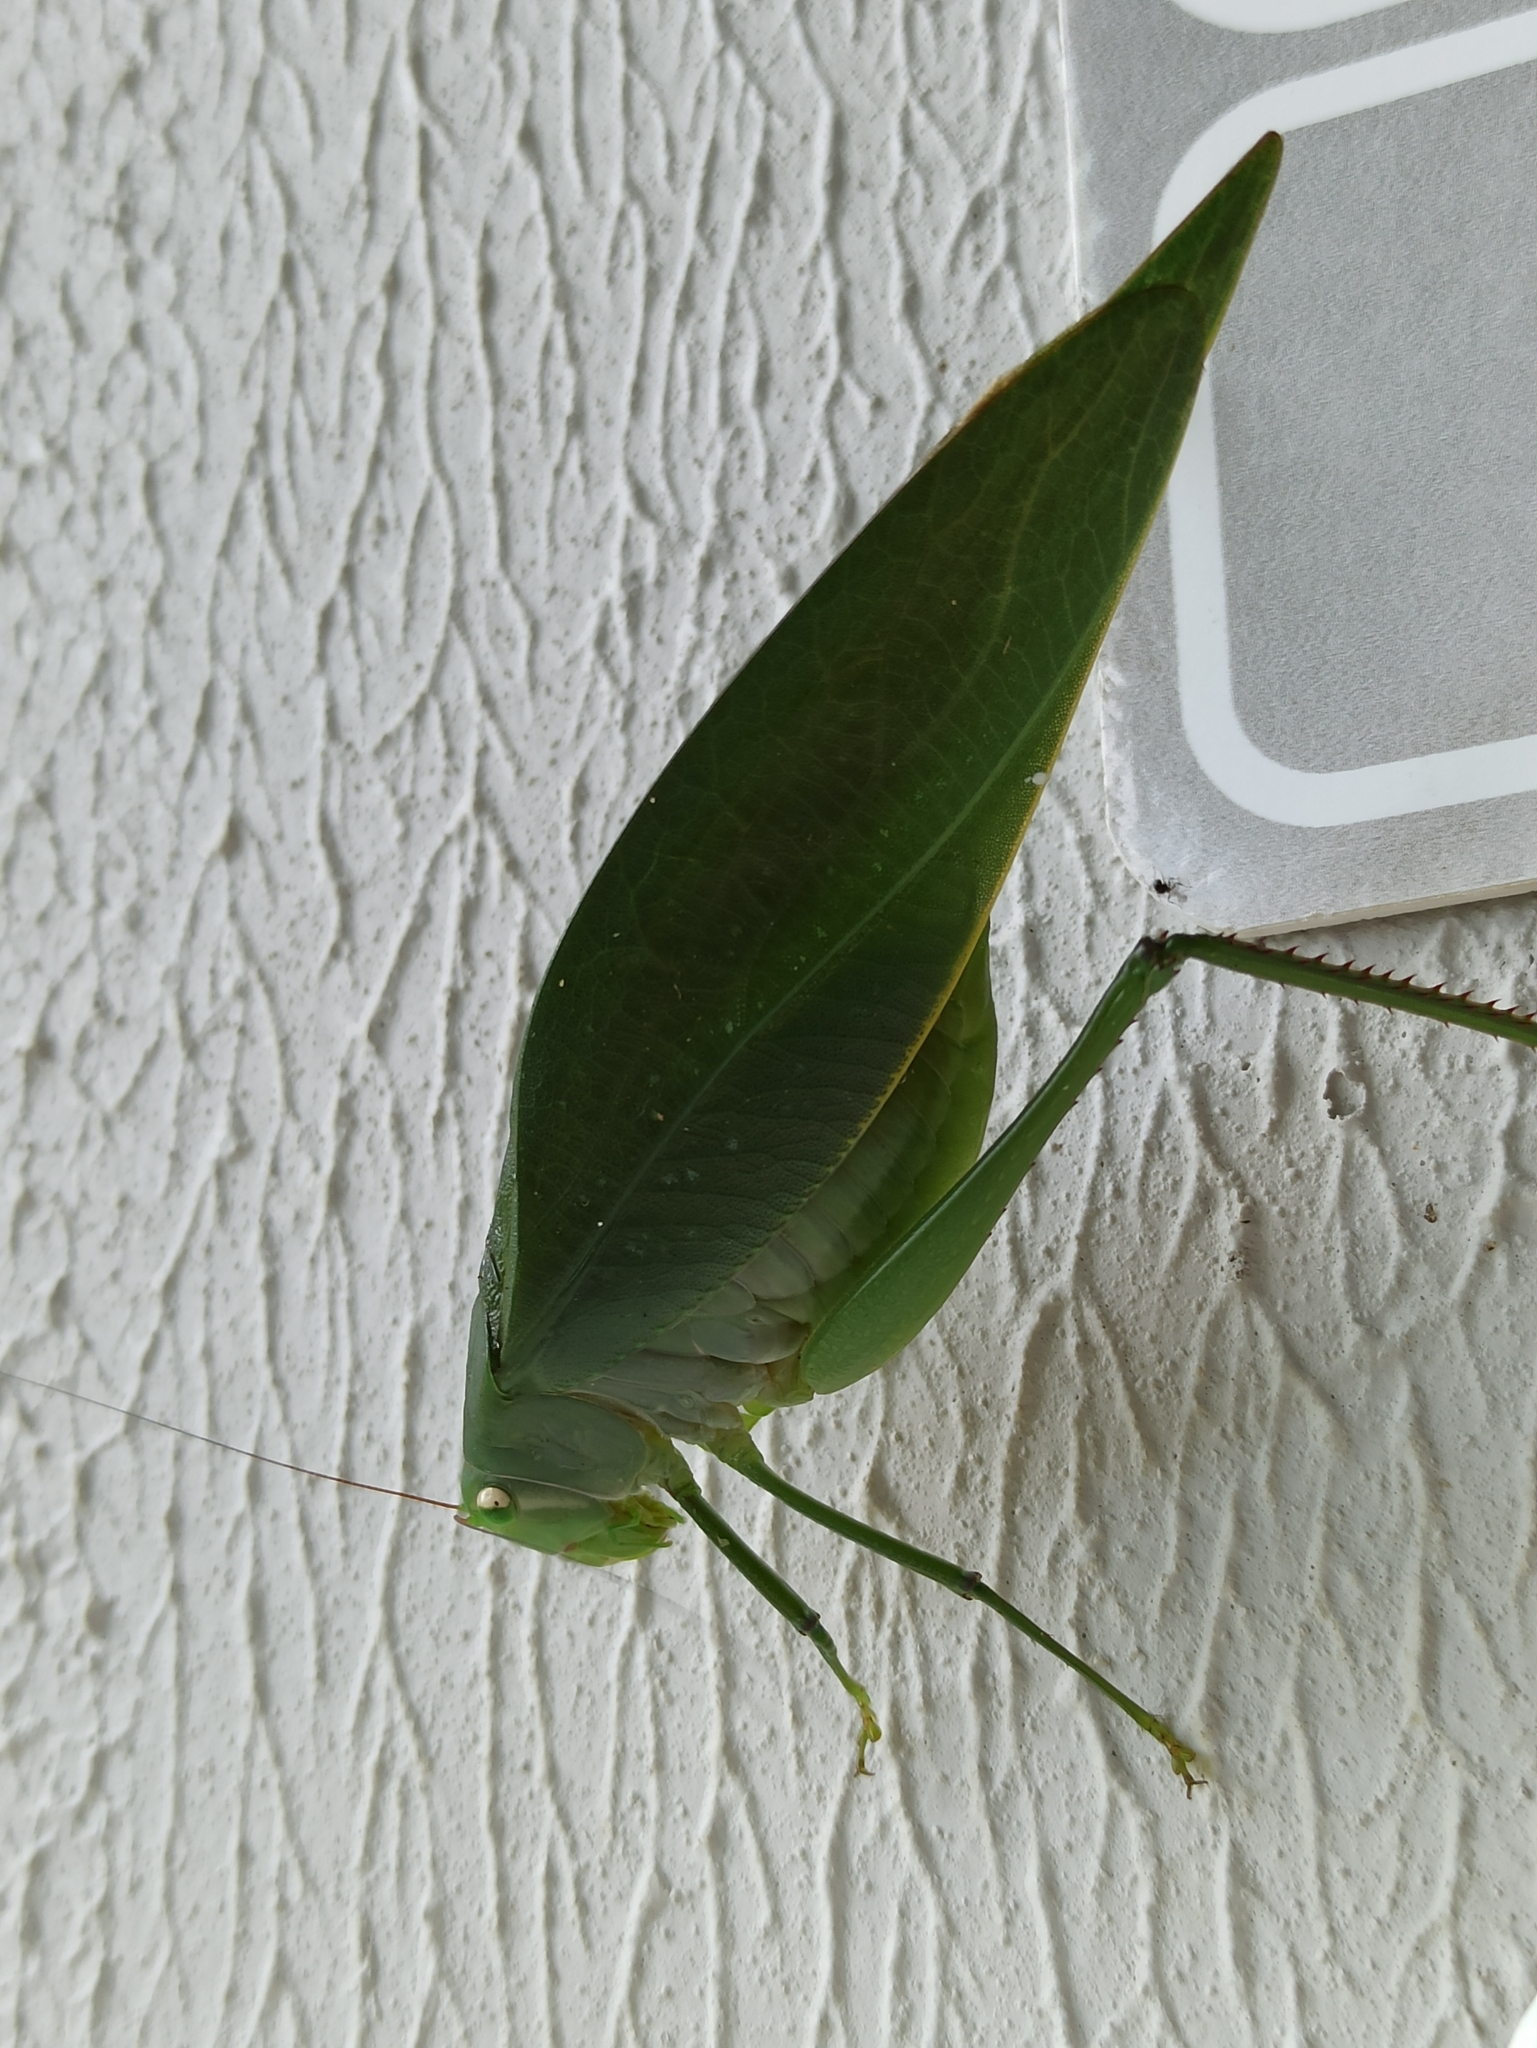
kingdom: Animalia
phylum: Arthropoda
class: Insecta
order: Orthoptera
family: Tettigoniidae
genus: Philophyllia
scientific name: Philophyllia ingens
